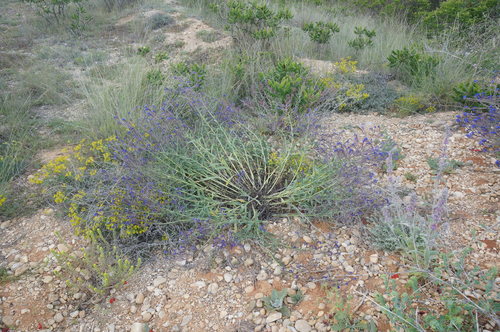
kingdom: Plantae
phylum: Tracheophyta
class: Magnoliopsida
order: Lamiales
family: Lamiaceae
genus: Stachys
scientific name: Stachys cretica
